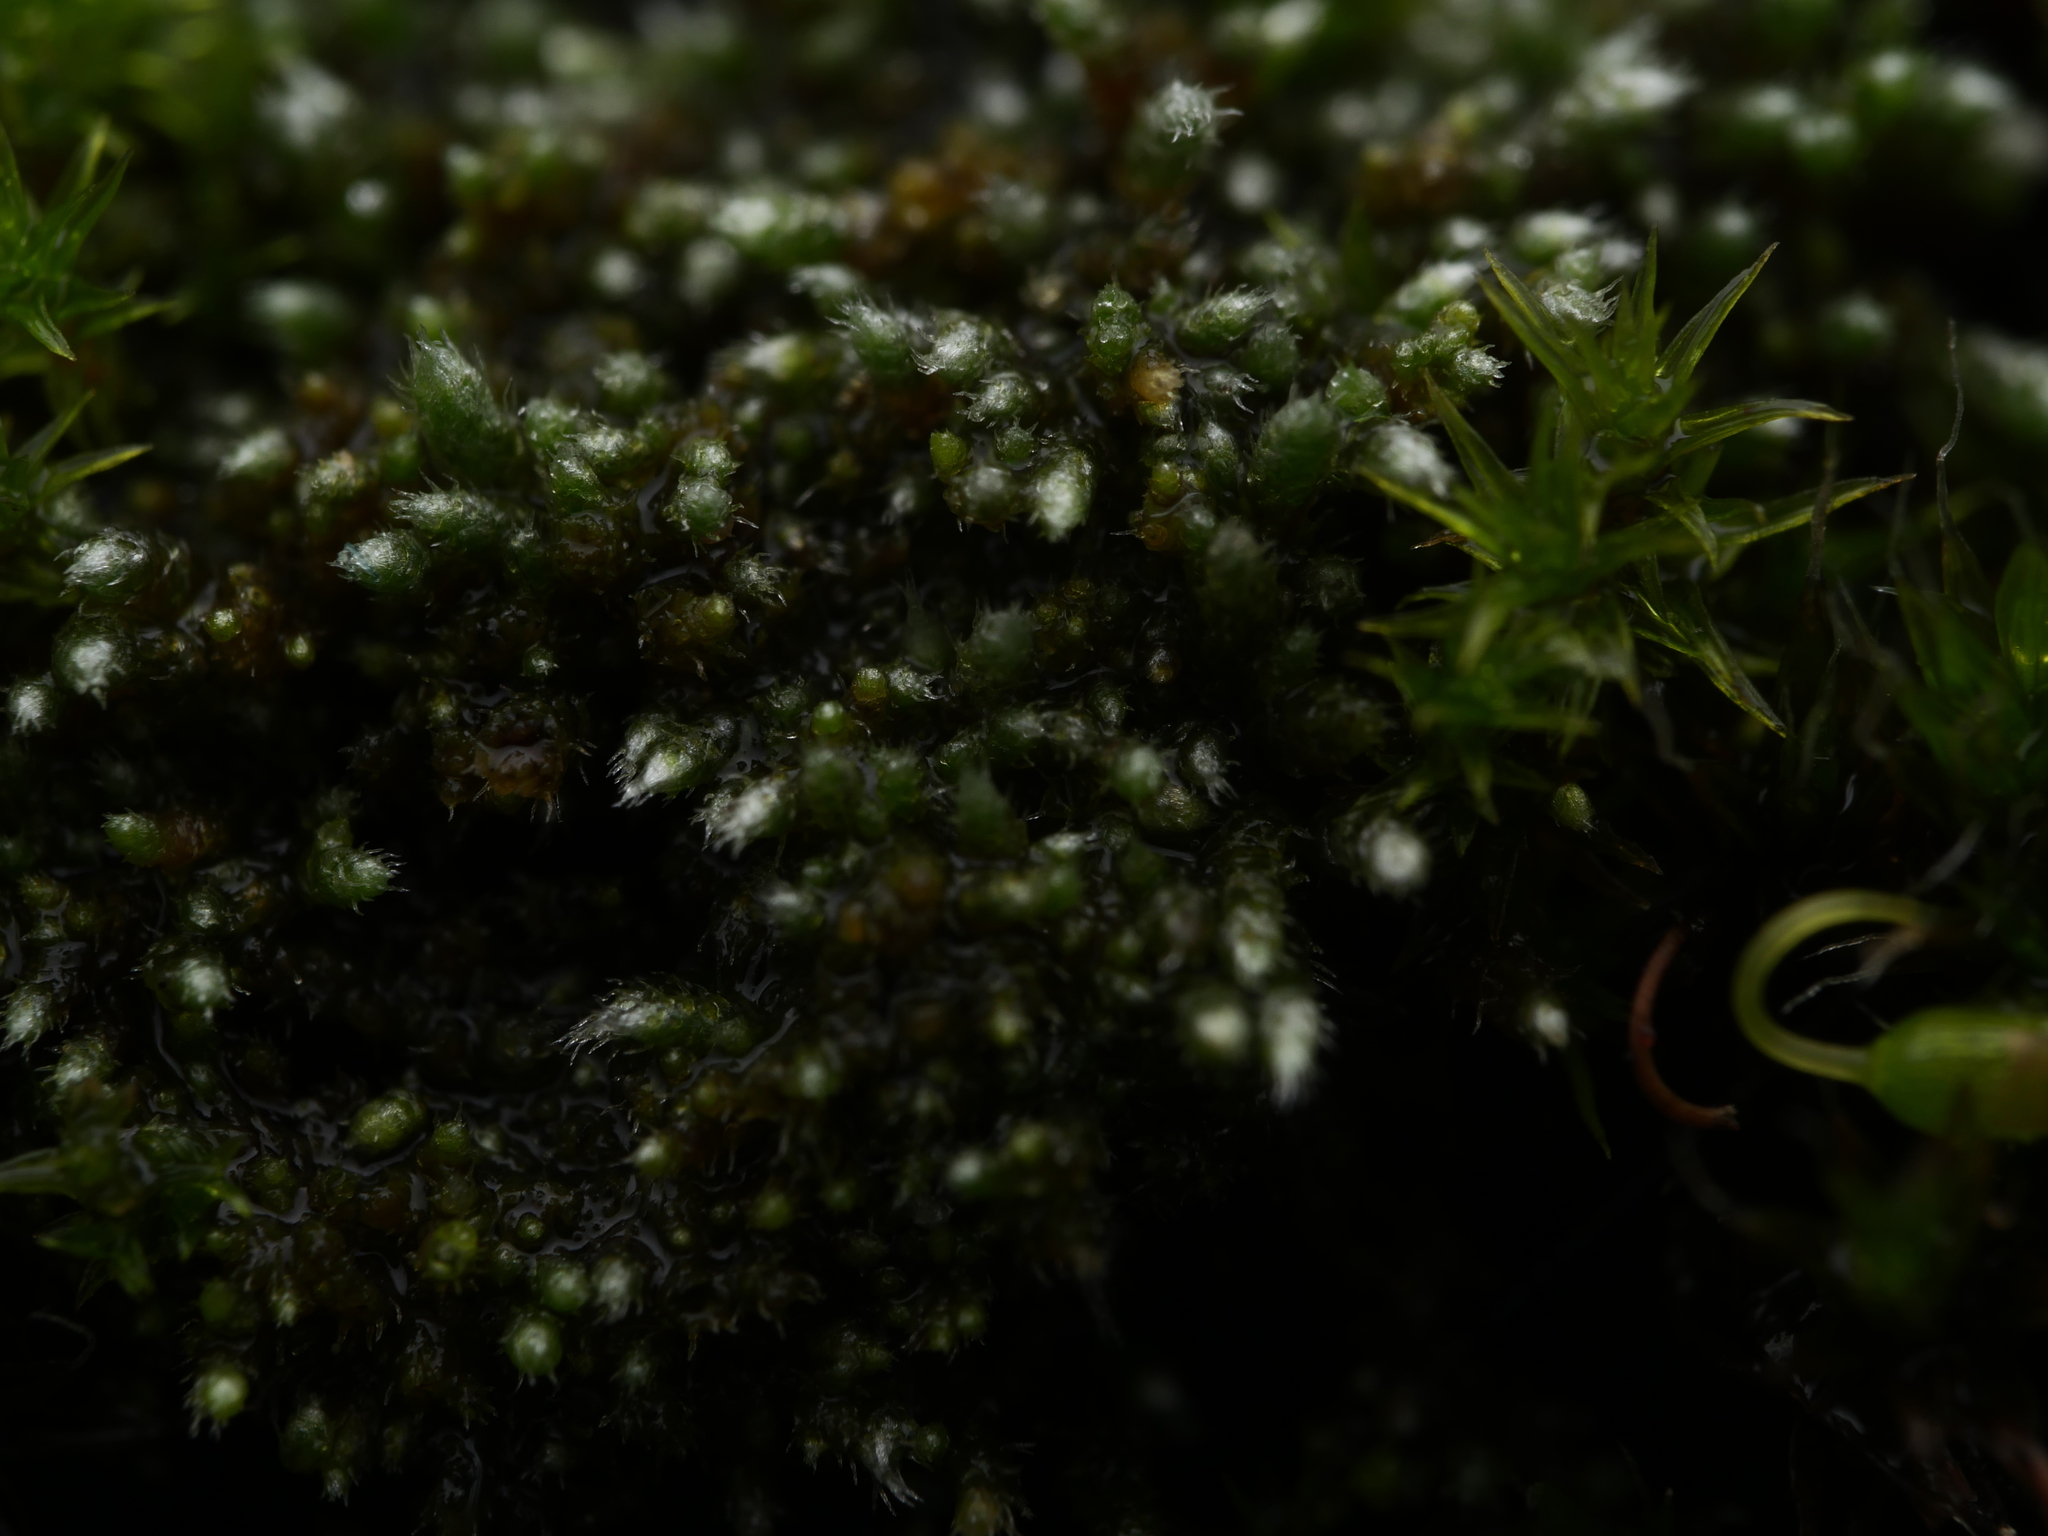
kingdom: Plantae
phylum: Bryophyta
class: Bryopsida
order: Bryales
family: Bryaceae
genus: Bryum
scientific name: Bryum argenteum
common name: Silver-moss
